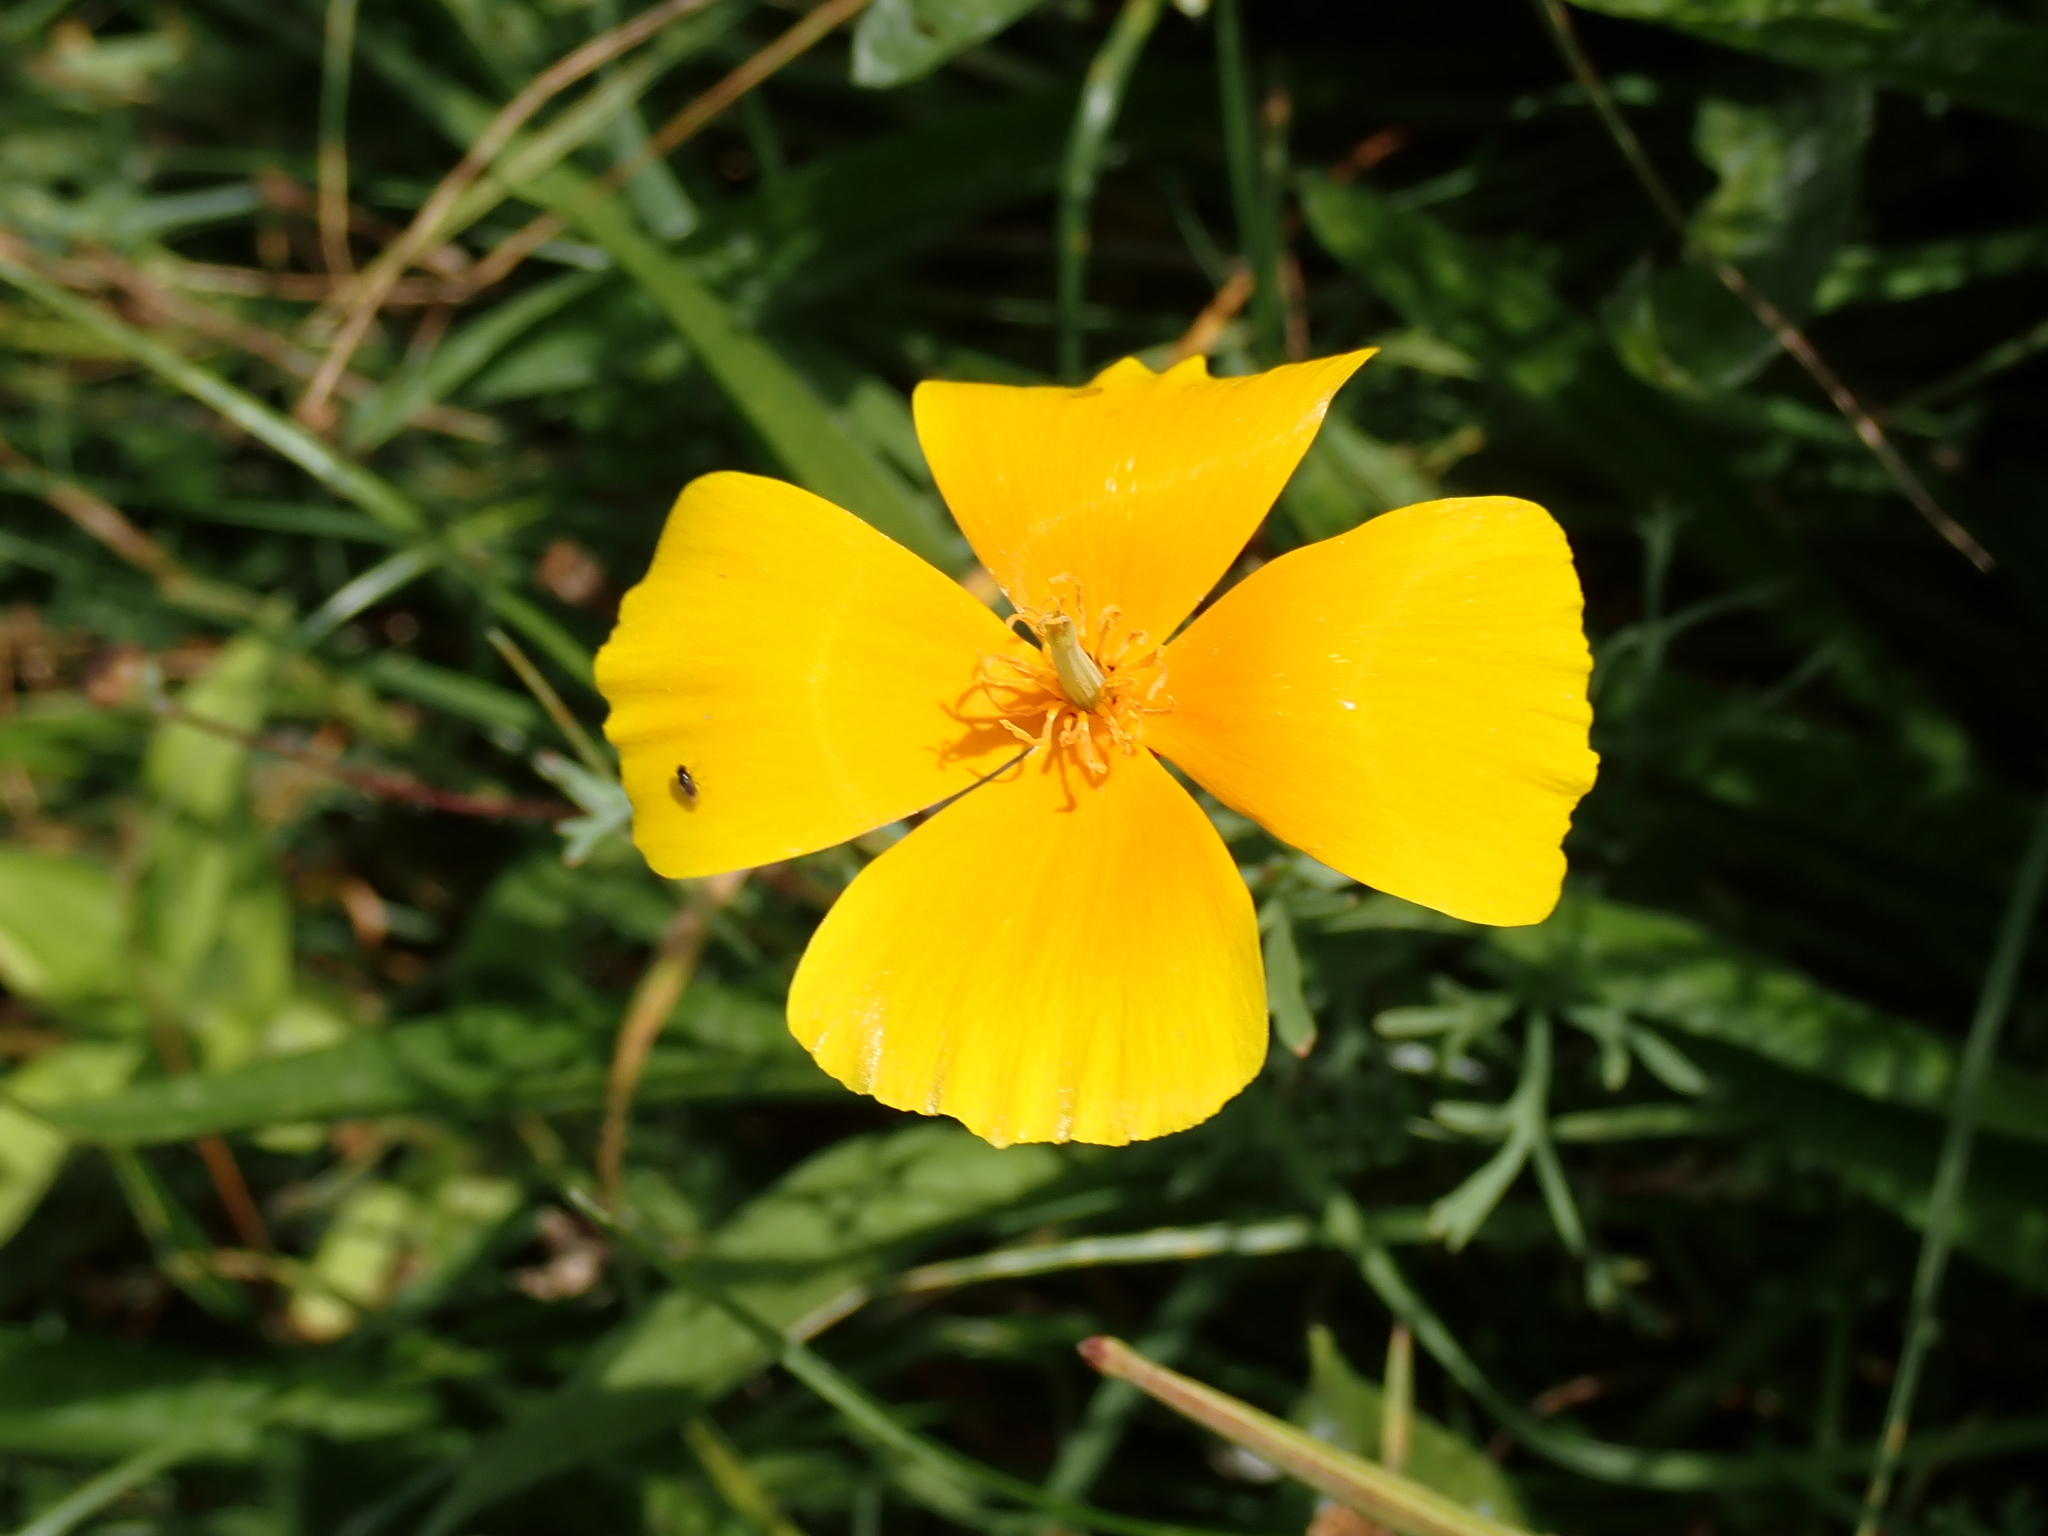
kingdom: Plantae
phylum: Tracheophyta
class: Magnoliopsida
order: Ranunculales
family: Papaveraceae
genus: Eschscholzia
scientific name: Eschscholzia californica
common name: California poppy
